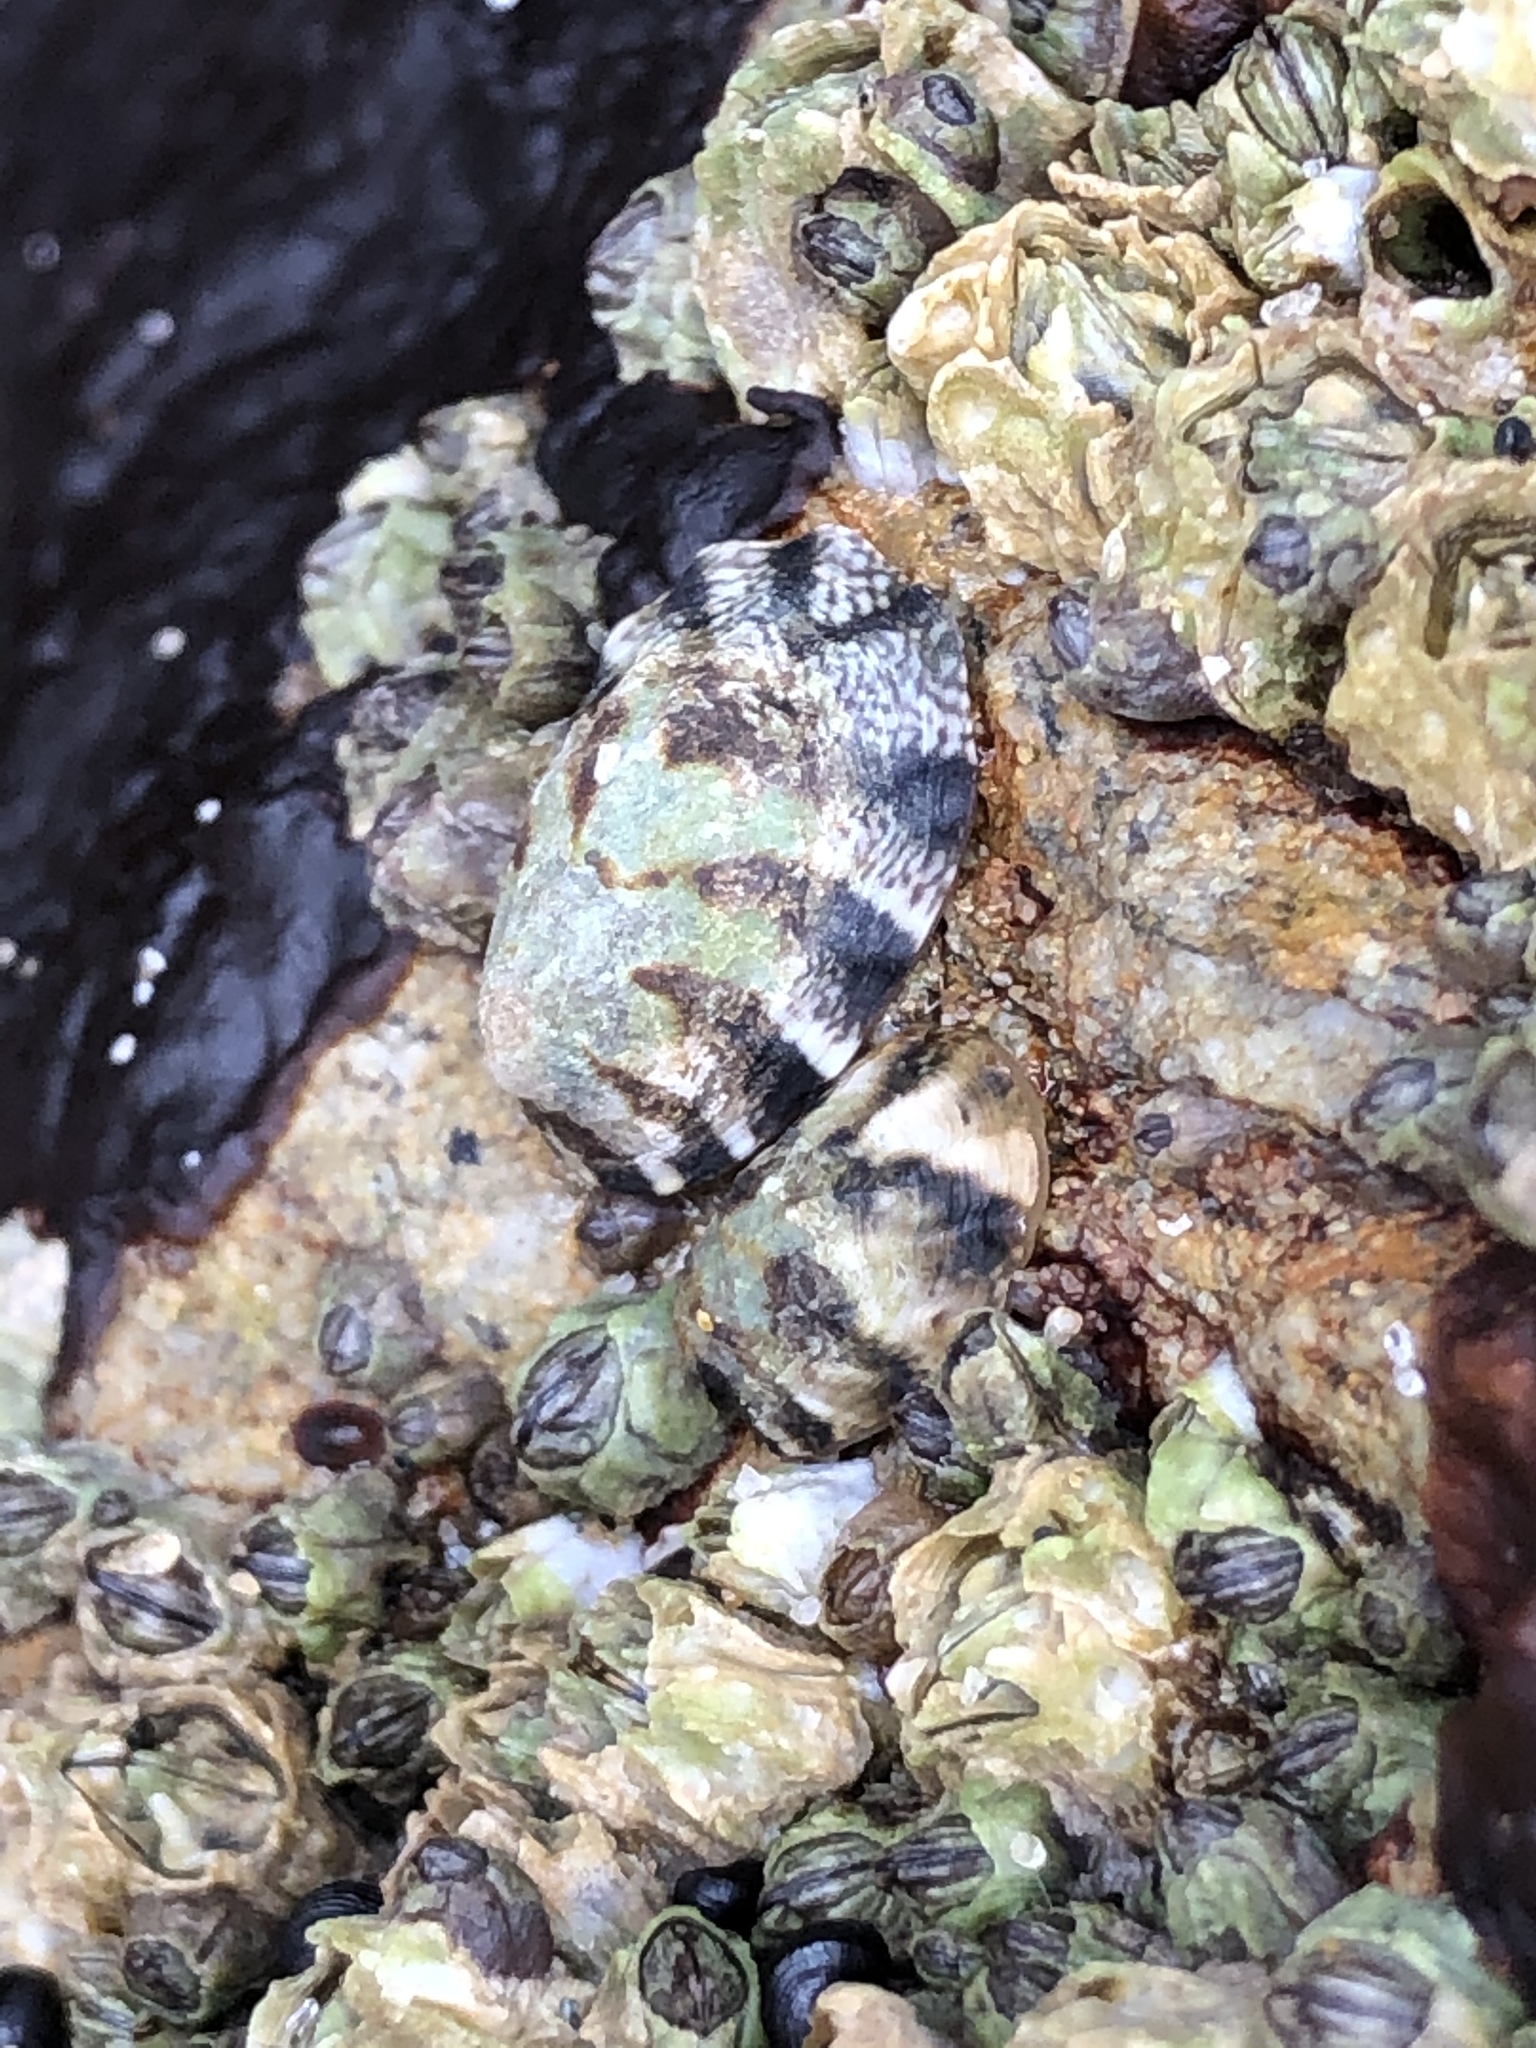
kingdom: Animalia
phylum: Mollusca
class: Gastropoda
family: Lottiidae
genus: Lottia
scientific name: Lottia digitalis
